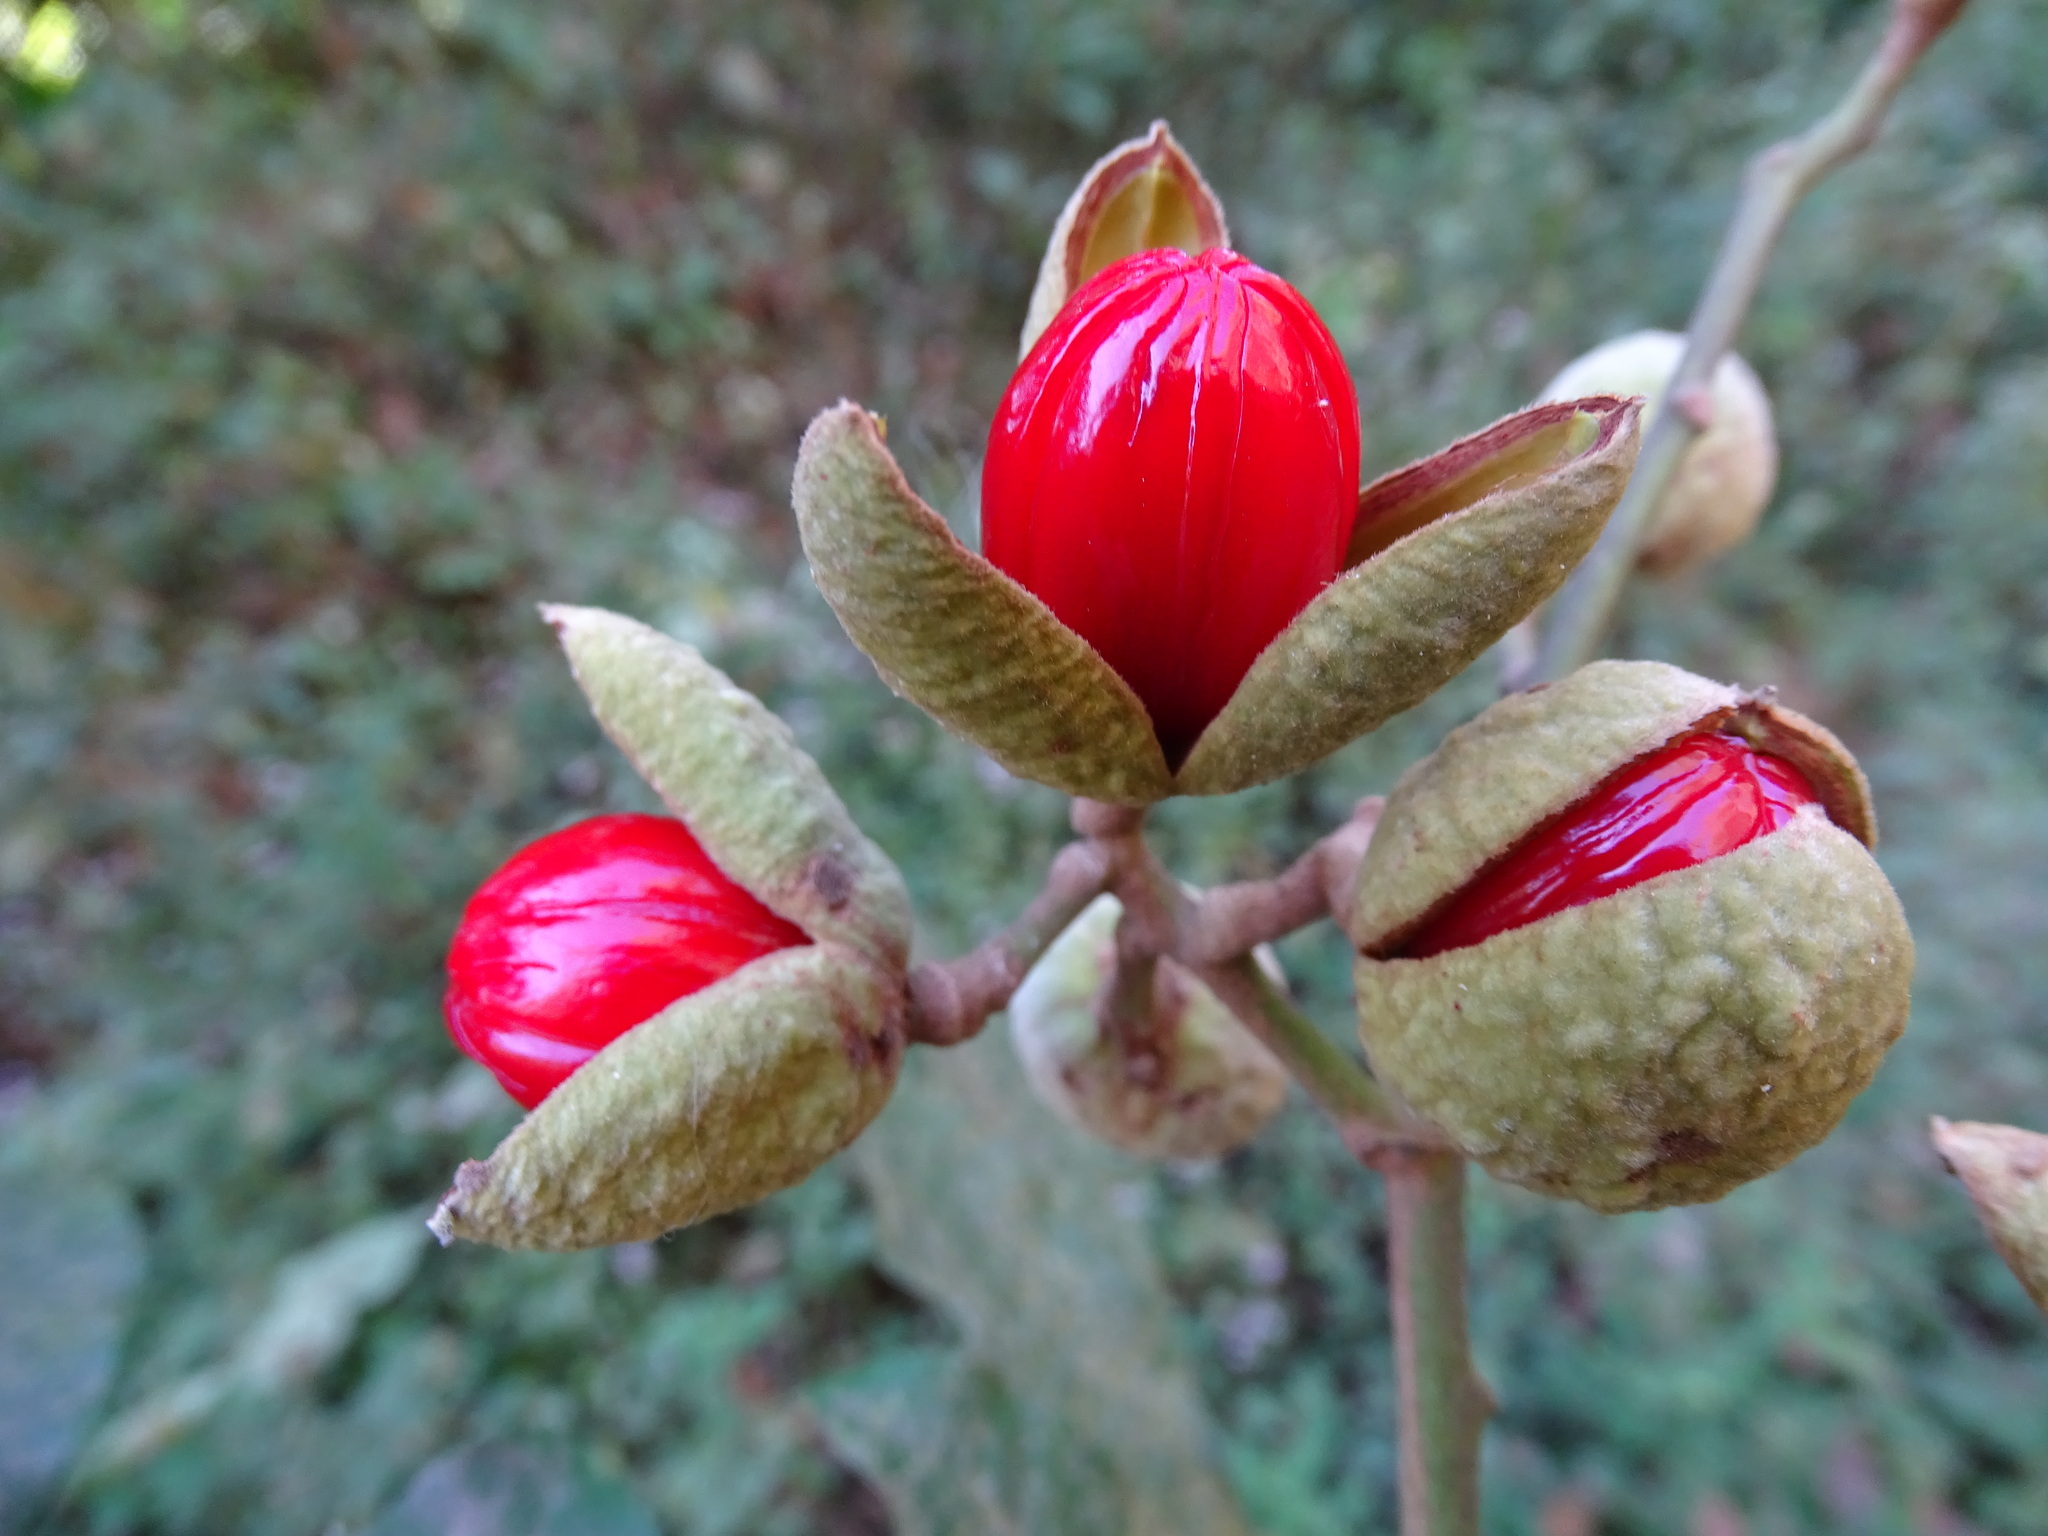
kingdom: Plantae
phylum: Tracheophyta
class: Magnoliopsida
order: Sapindales
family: Meliaceae
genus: Trichilia
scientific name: Trichilia moschata
